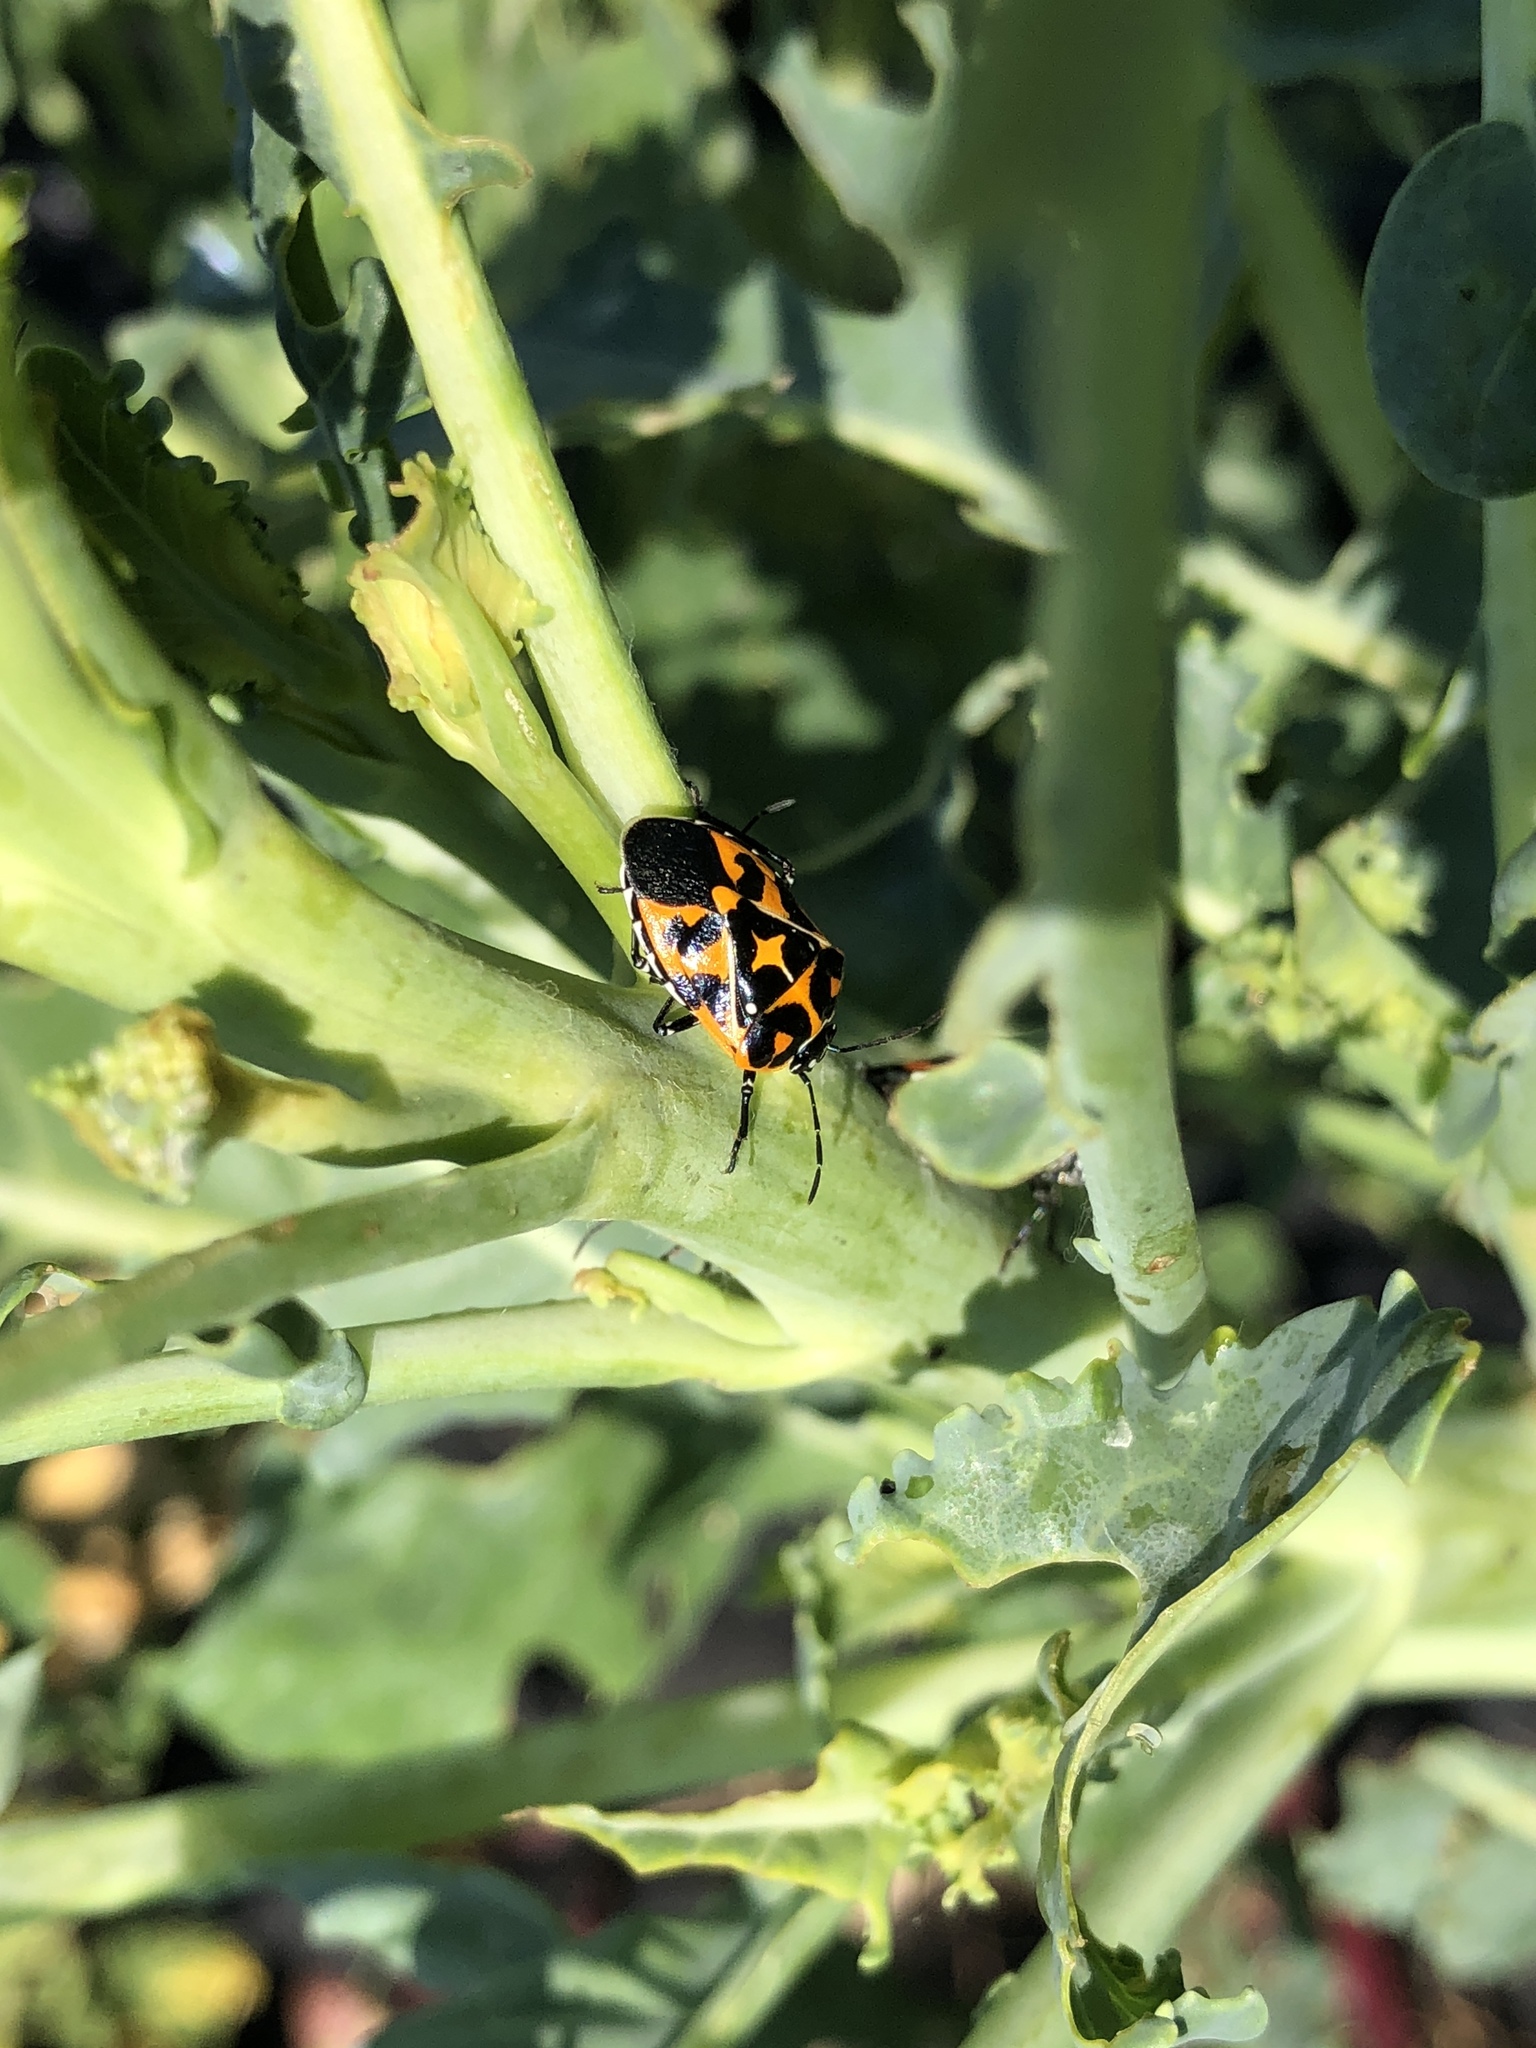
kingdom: Animalia
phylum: Arthropoda
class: Insecta
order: Hemiptera
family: Pentatomidae
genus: Murgantia
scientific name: Murgantia histrionica
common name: Harlequin bug
